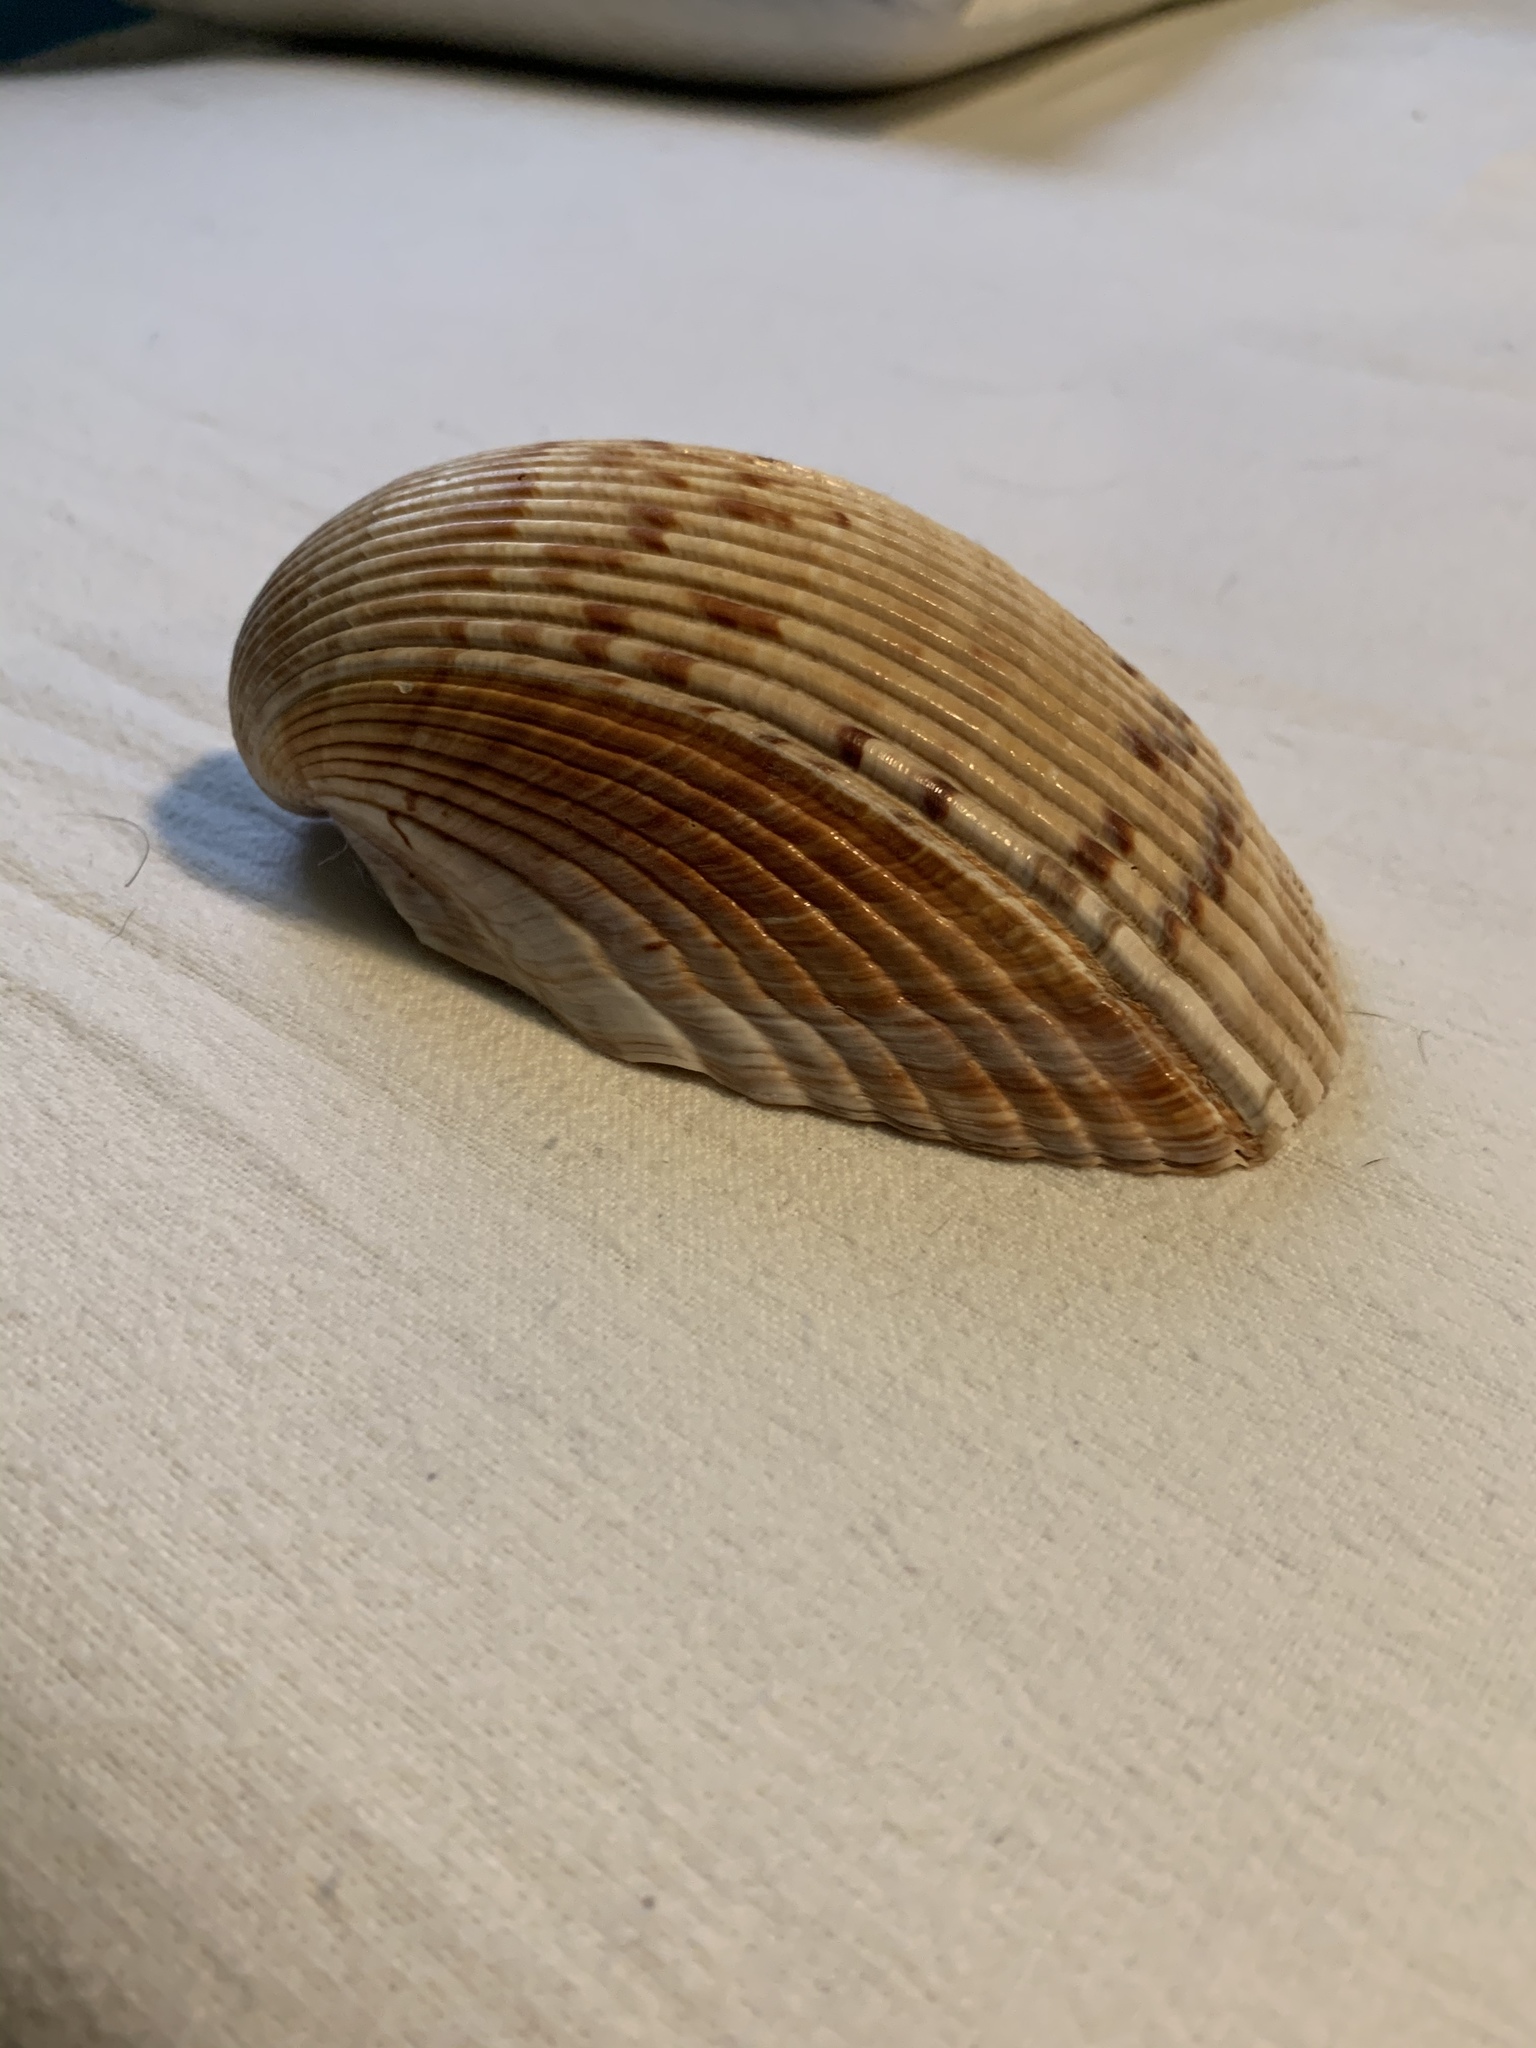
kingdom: Animalia
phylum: Mollusca
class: Bivalvia
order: Cardiida
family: Cardiidae
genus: Dinocardium
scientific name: Dinocardium robustum
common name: Atlantic giant cockle
